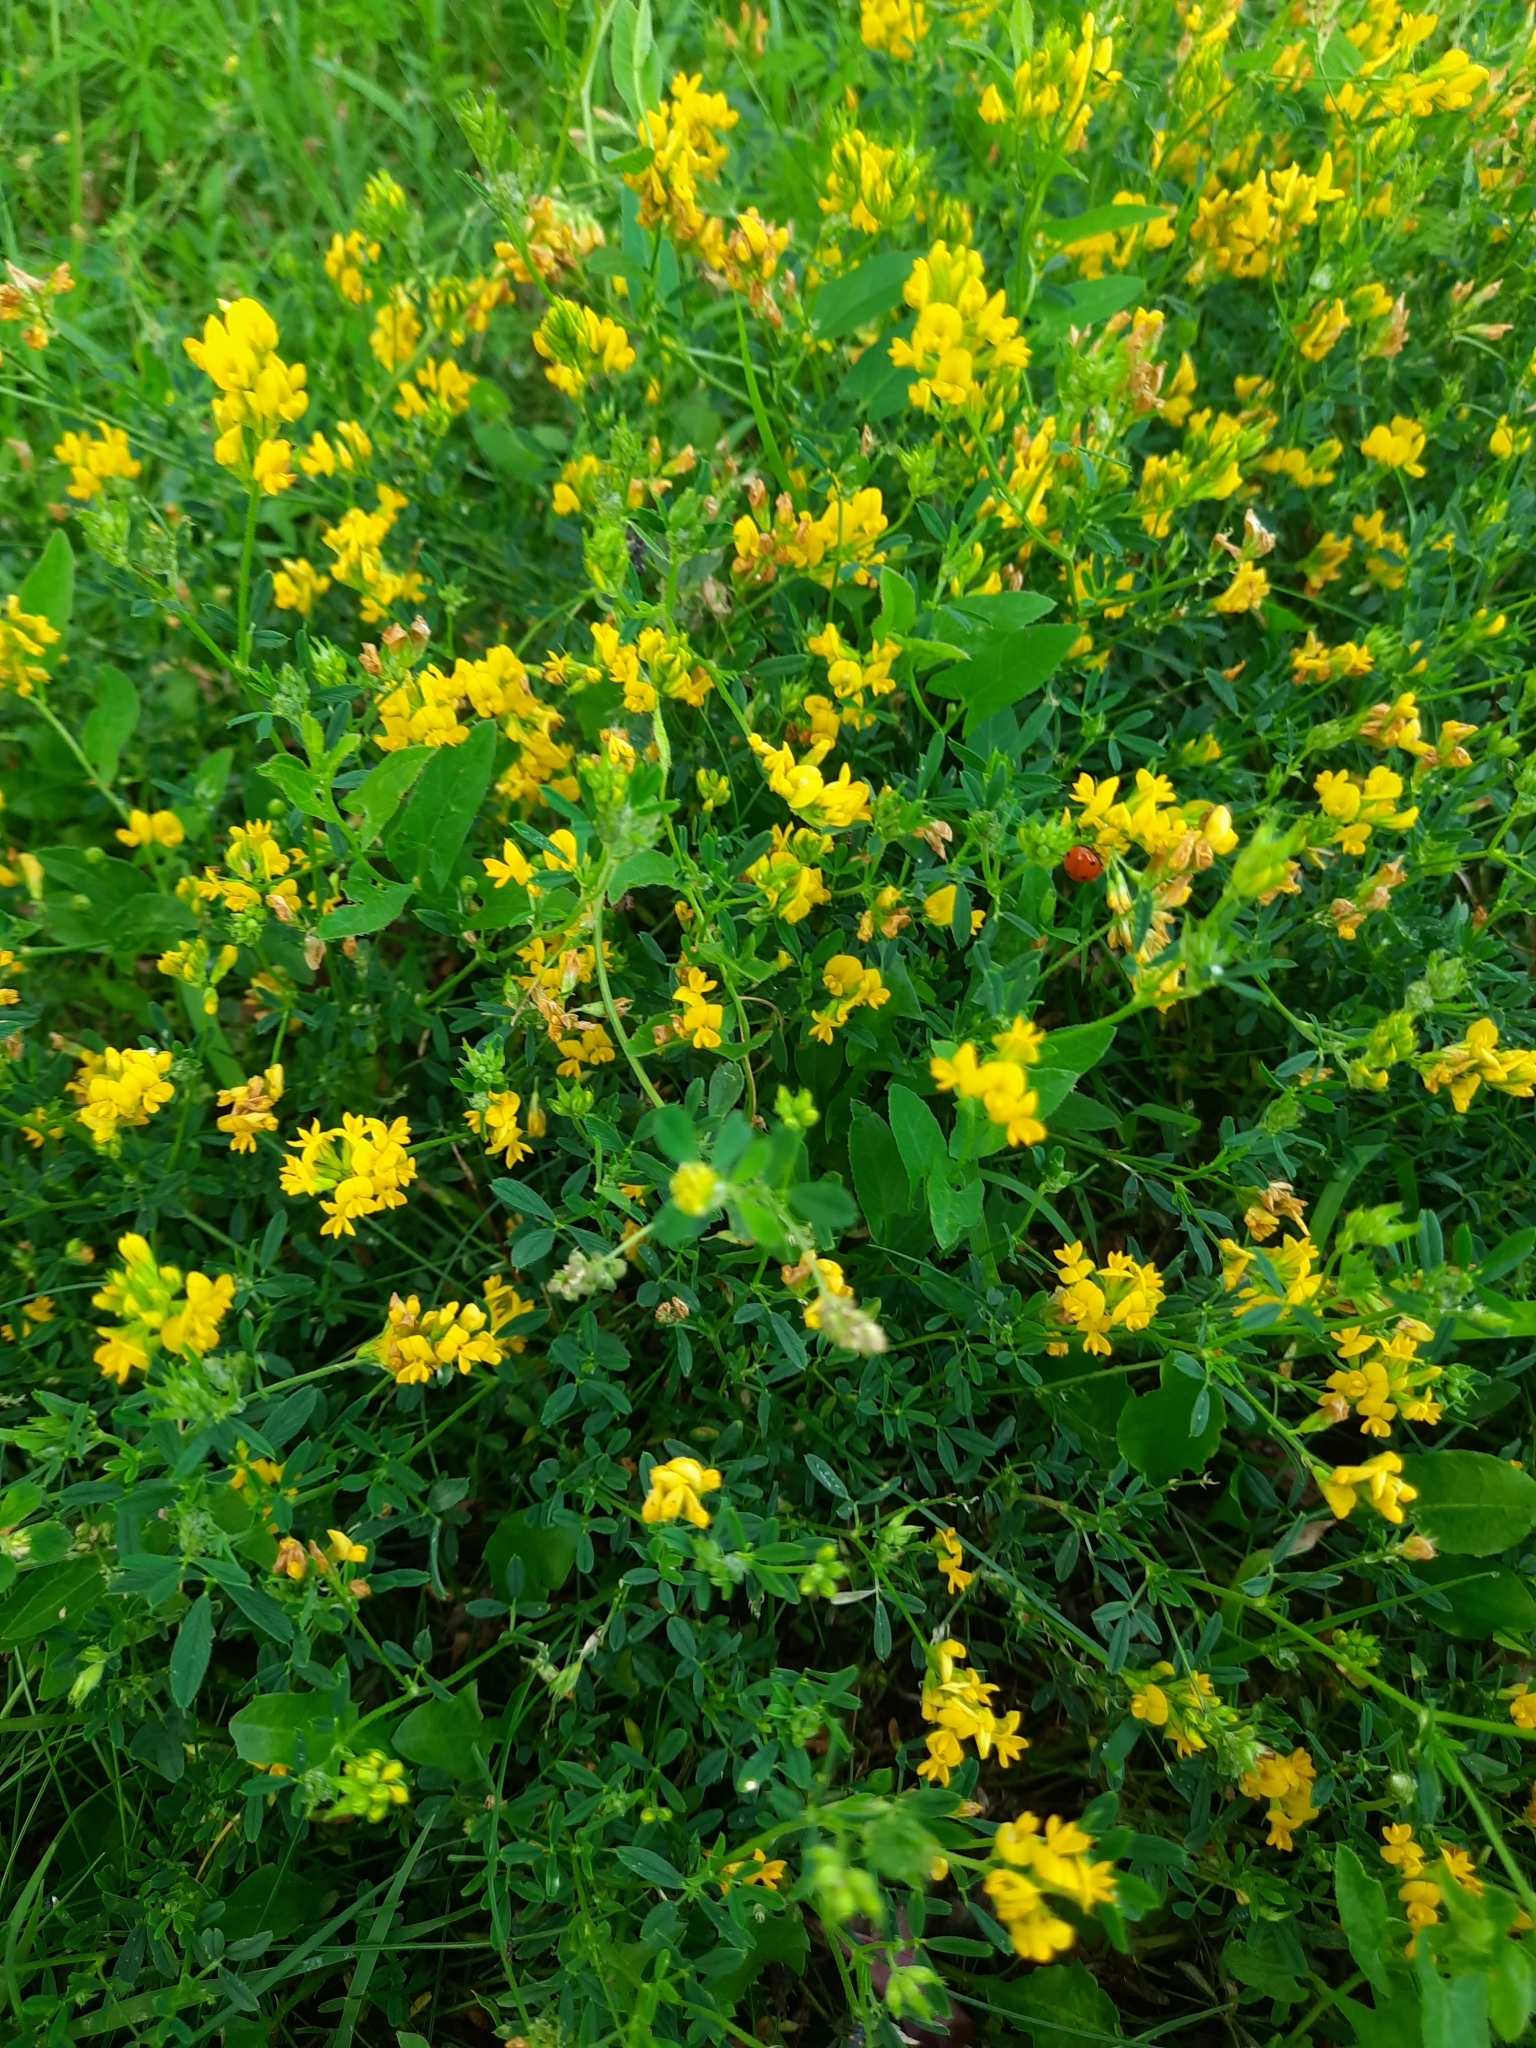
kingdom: Plantae
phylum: Tracheophyta
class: Magnoliopsida
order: Fabales
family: Fabaceae
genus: Medicago
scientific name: Medicago falcata
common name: Sickle medick
